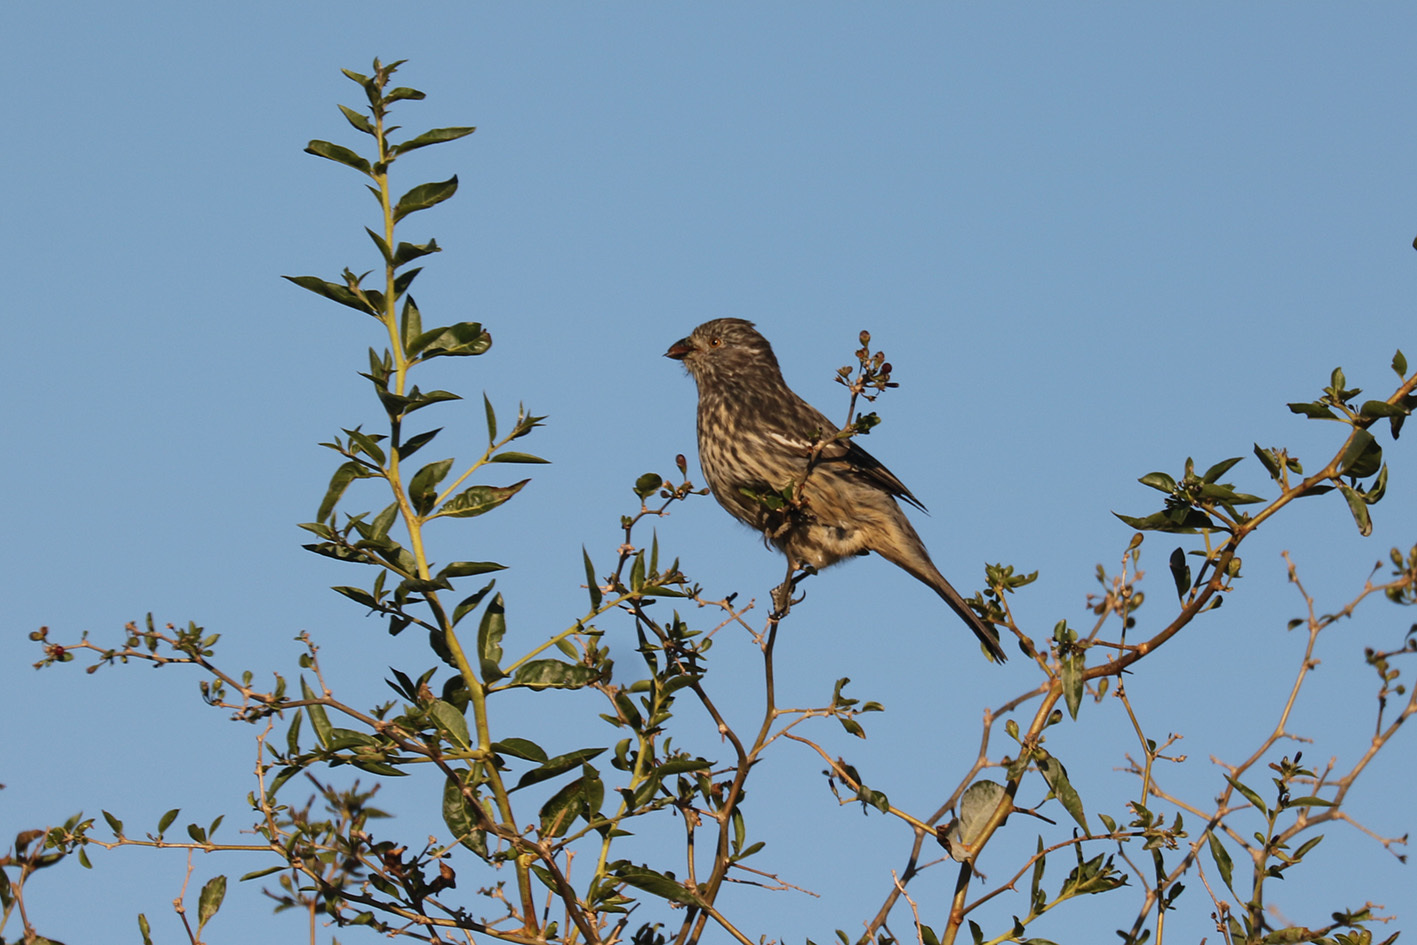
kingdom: Animalia
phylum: Chordata
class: Aves
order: Passeriformes
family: Cotingidae
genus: Phytotoma
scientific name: Phytotoma rutila
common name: White-tipped plantcutter
